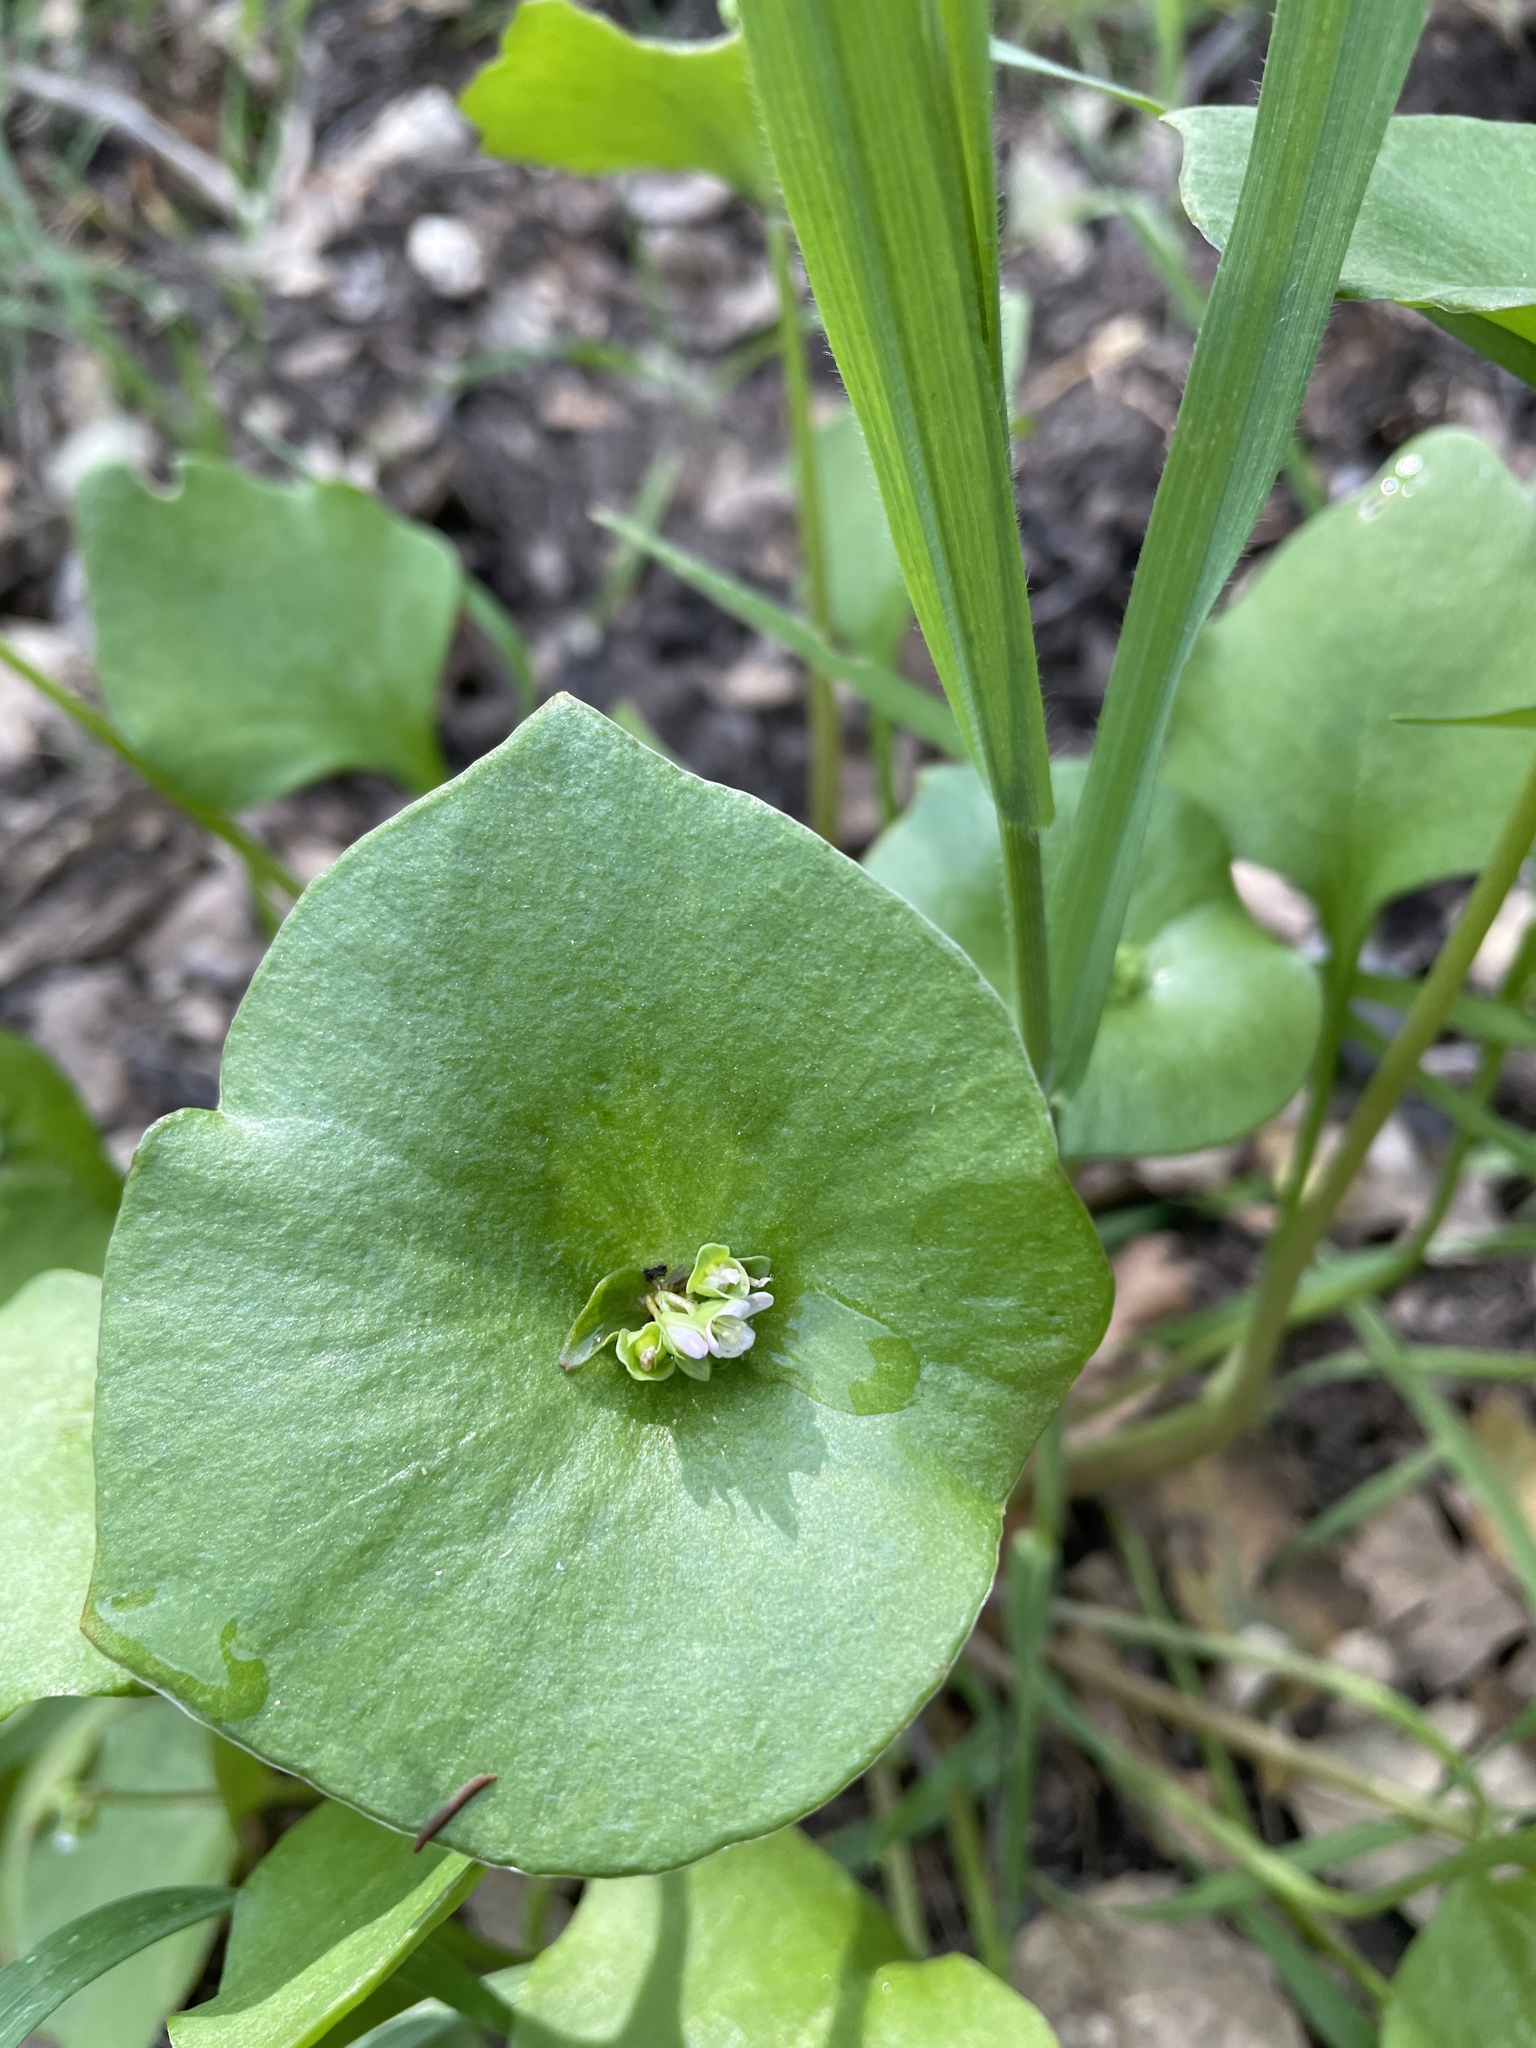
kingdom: Plantae
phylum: Tracheophyta
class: Magnoliopsida
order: Caryophyllales
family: Montiaceae
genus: Claytonia
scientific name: Claytonia perfoliata
